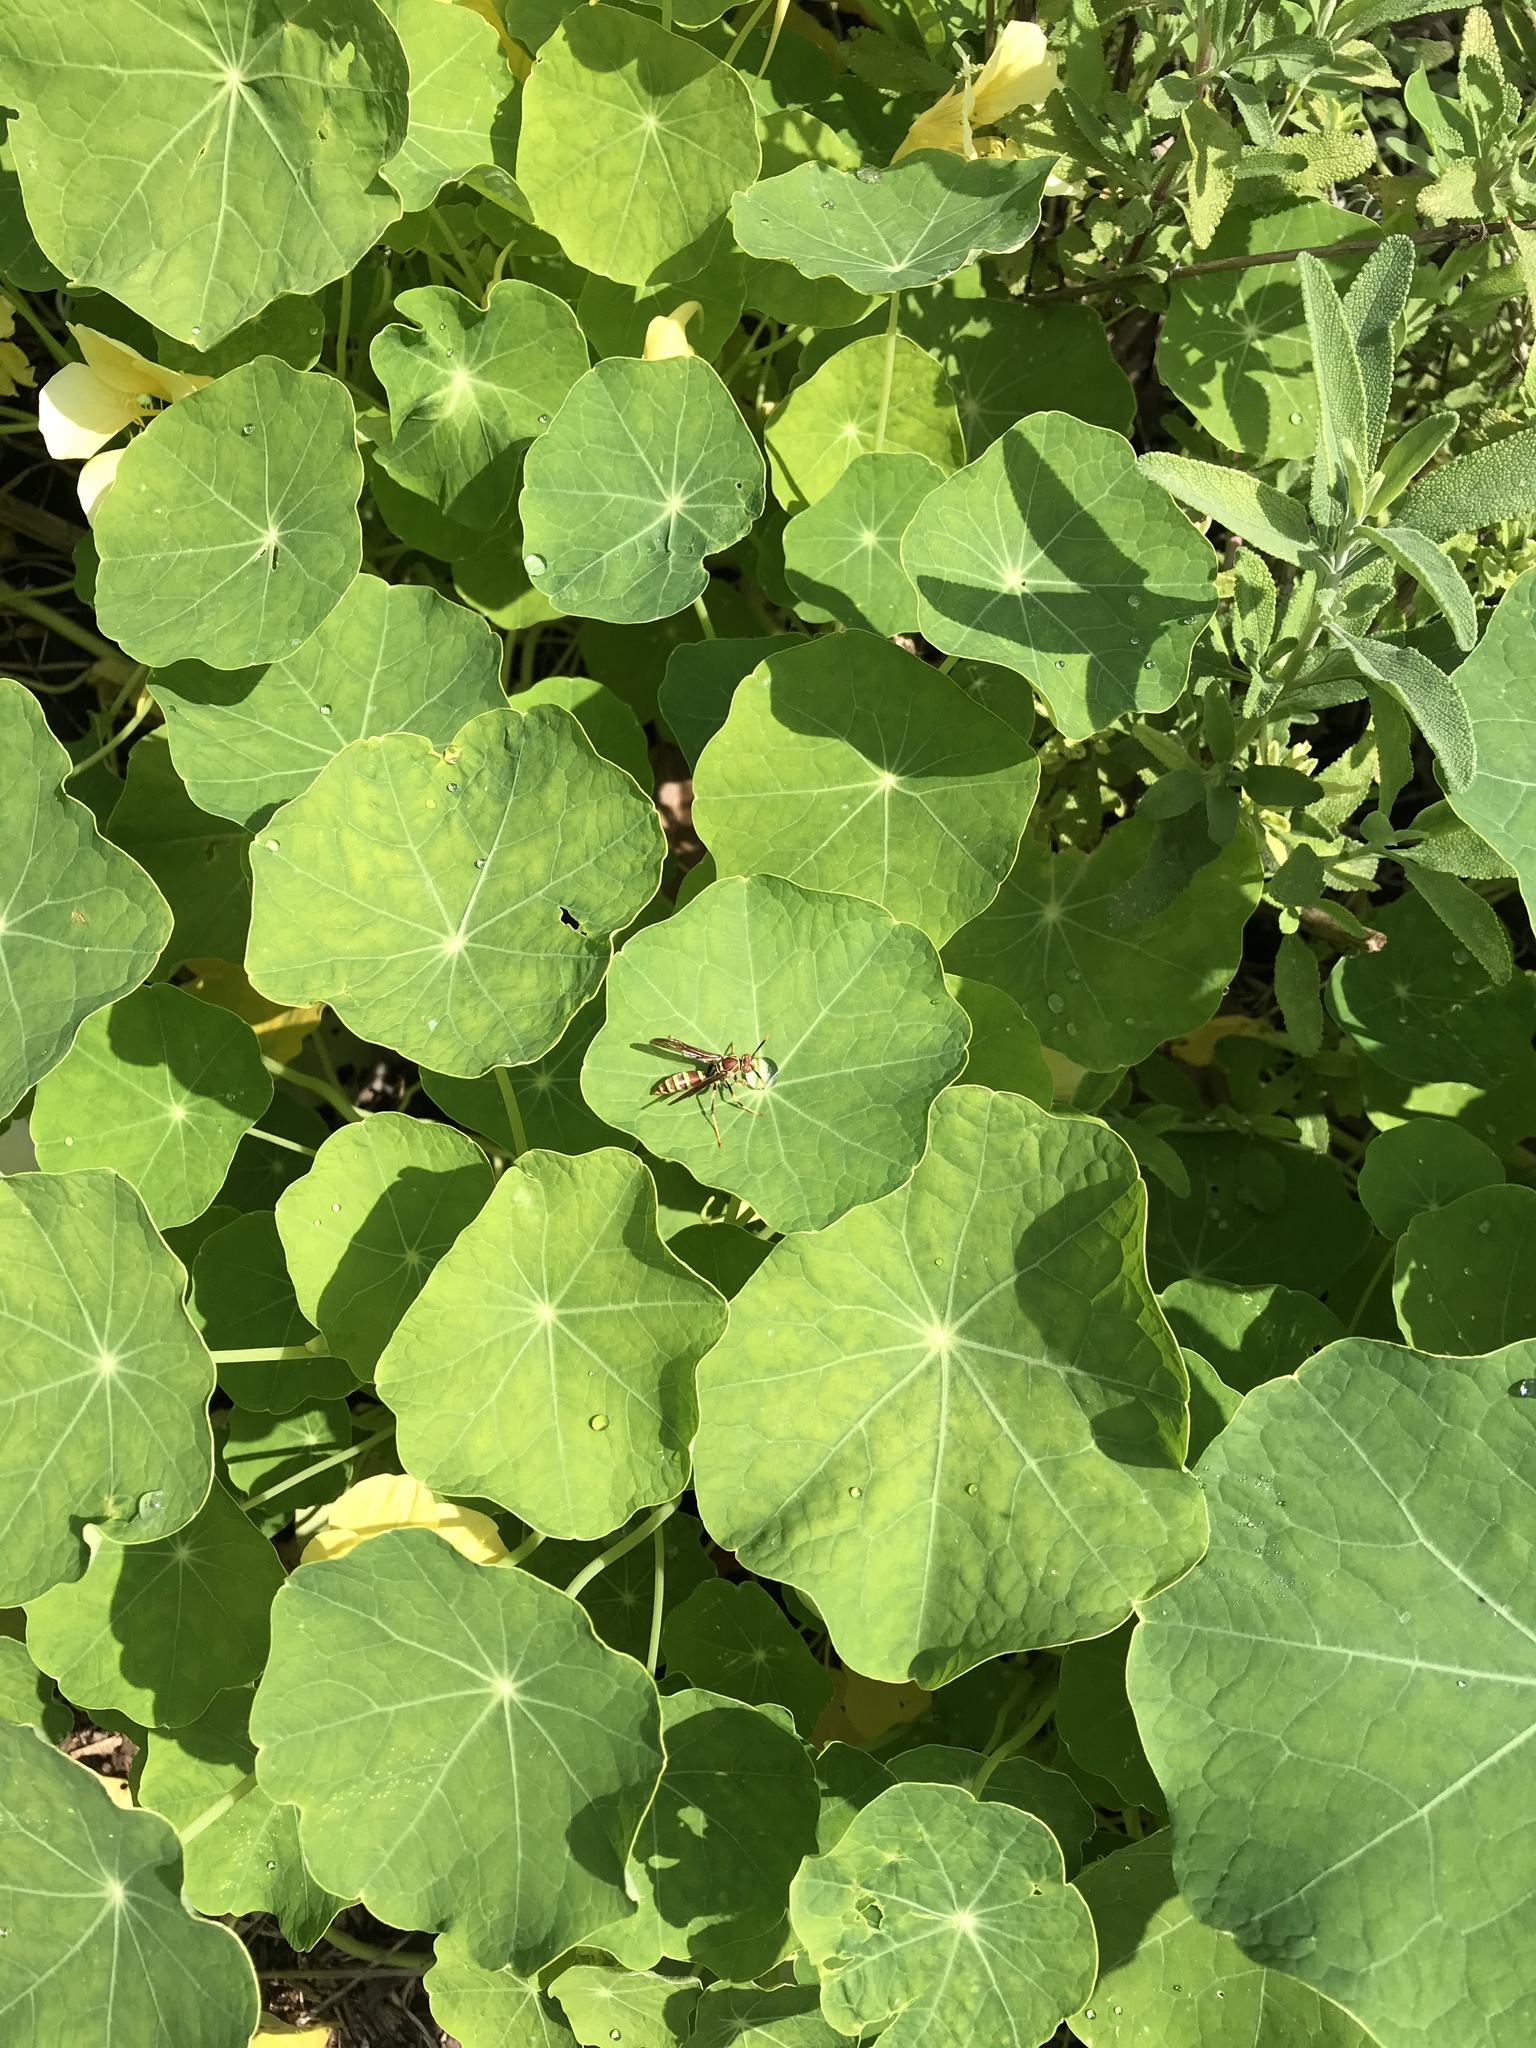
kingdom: Animalia
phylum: Arthropoda
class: Insecta
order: Hymenoptera
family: Eumenidae
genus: Polistes
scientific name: Polistes exclamans
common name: Paper wasp
